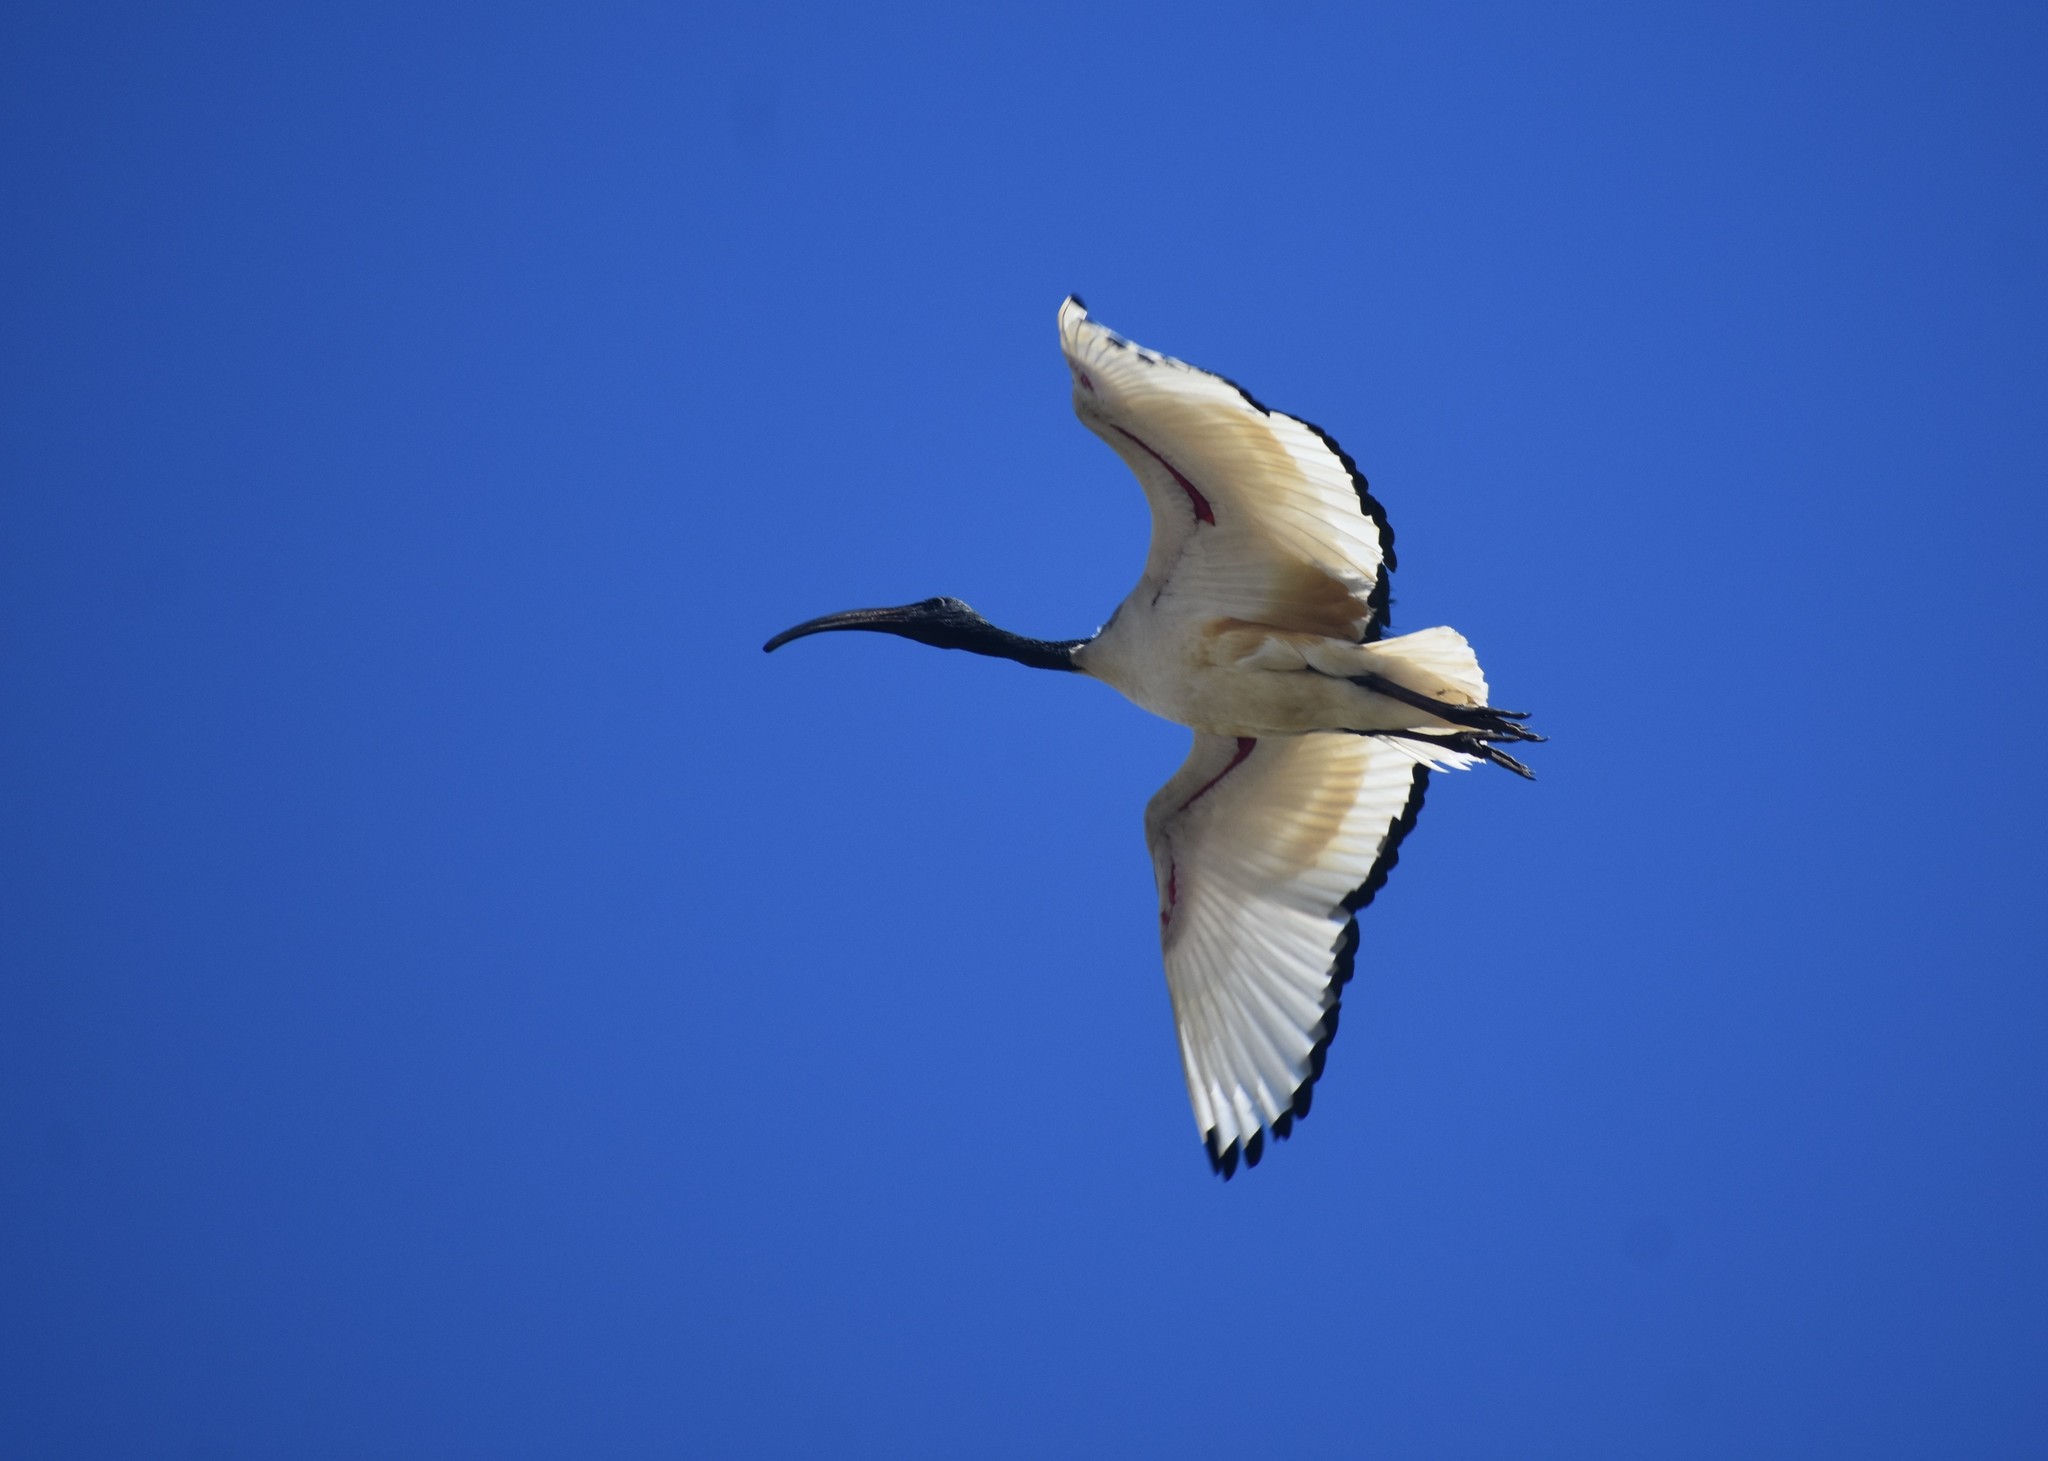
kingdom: Animalia
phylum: Chordata
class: Aves
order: Pelecaniformes
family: Threskiornithidae
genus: Threskiornis
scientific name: Threskiornis aethiopicus
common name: Sacred ibis
